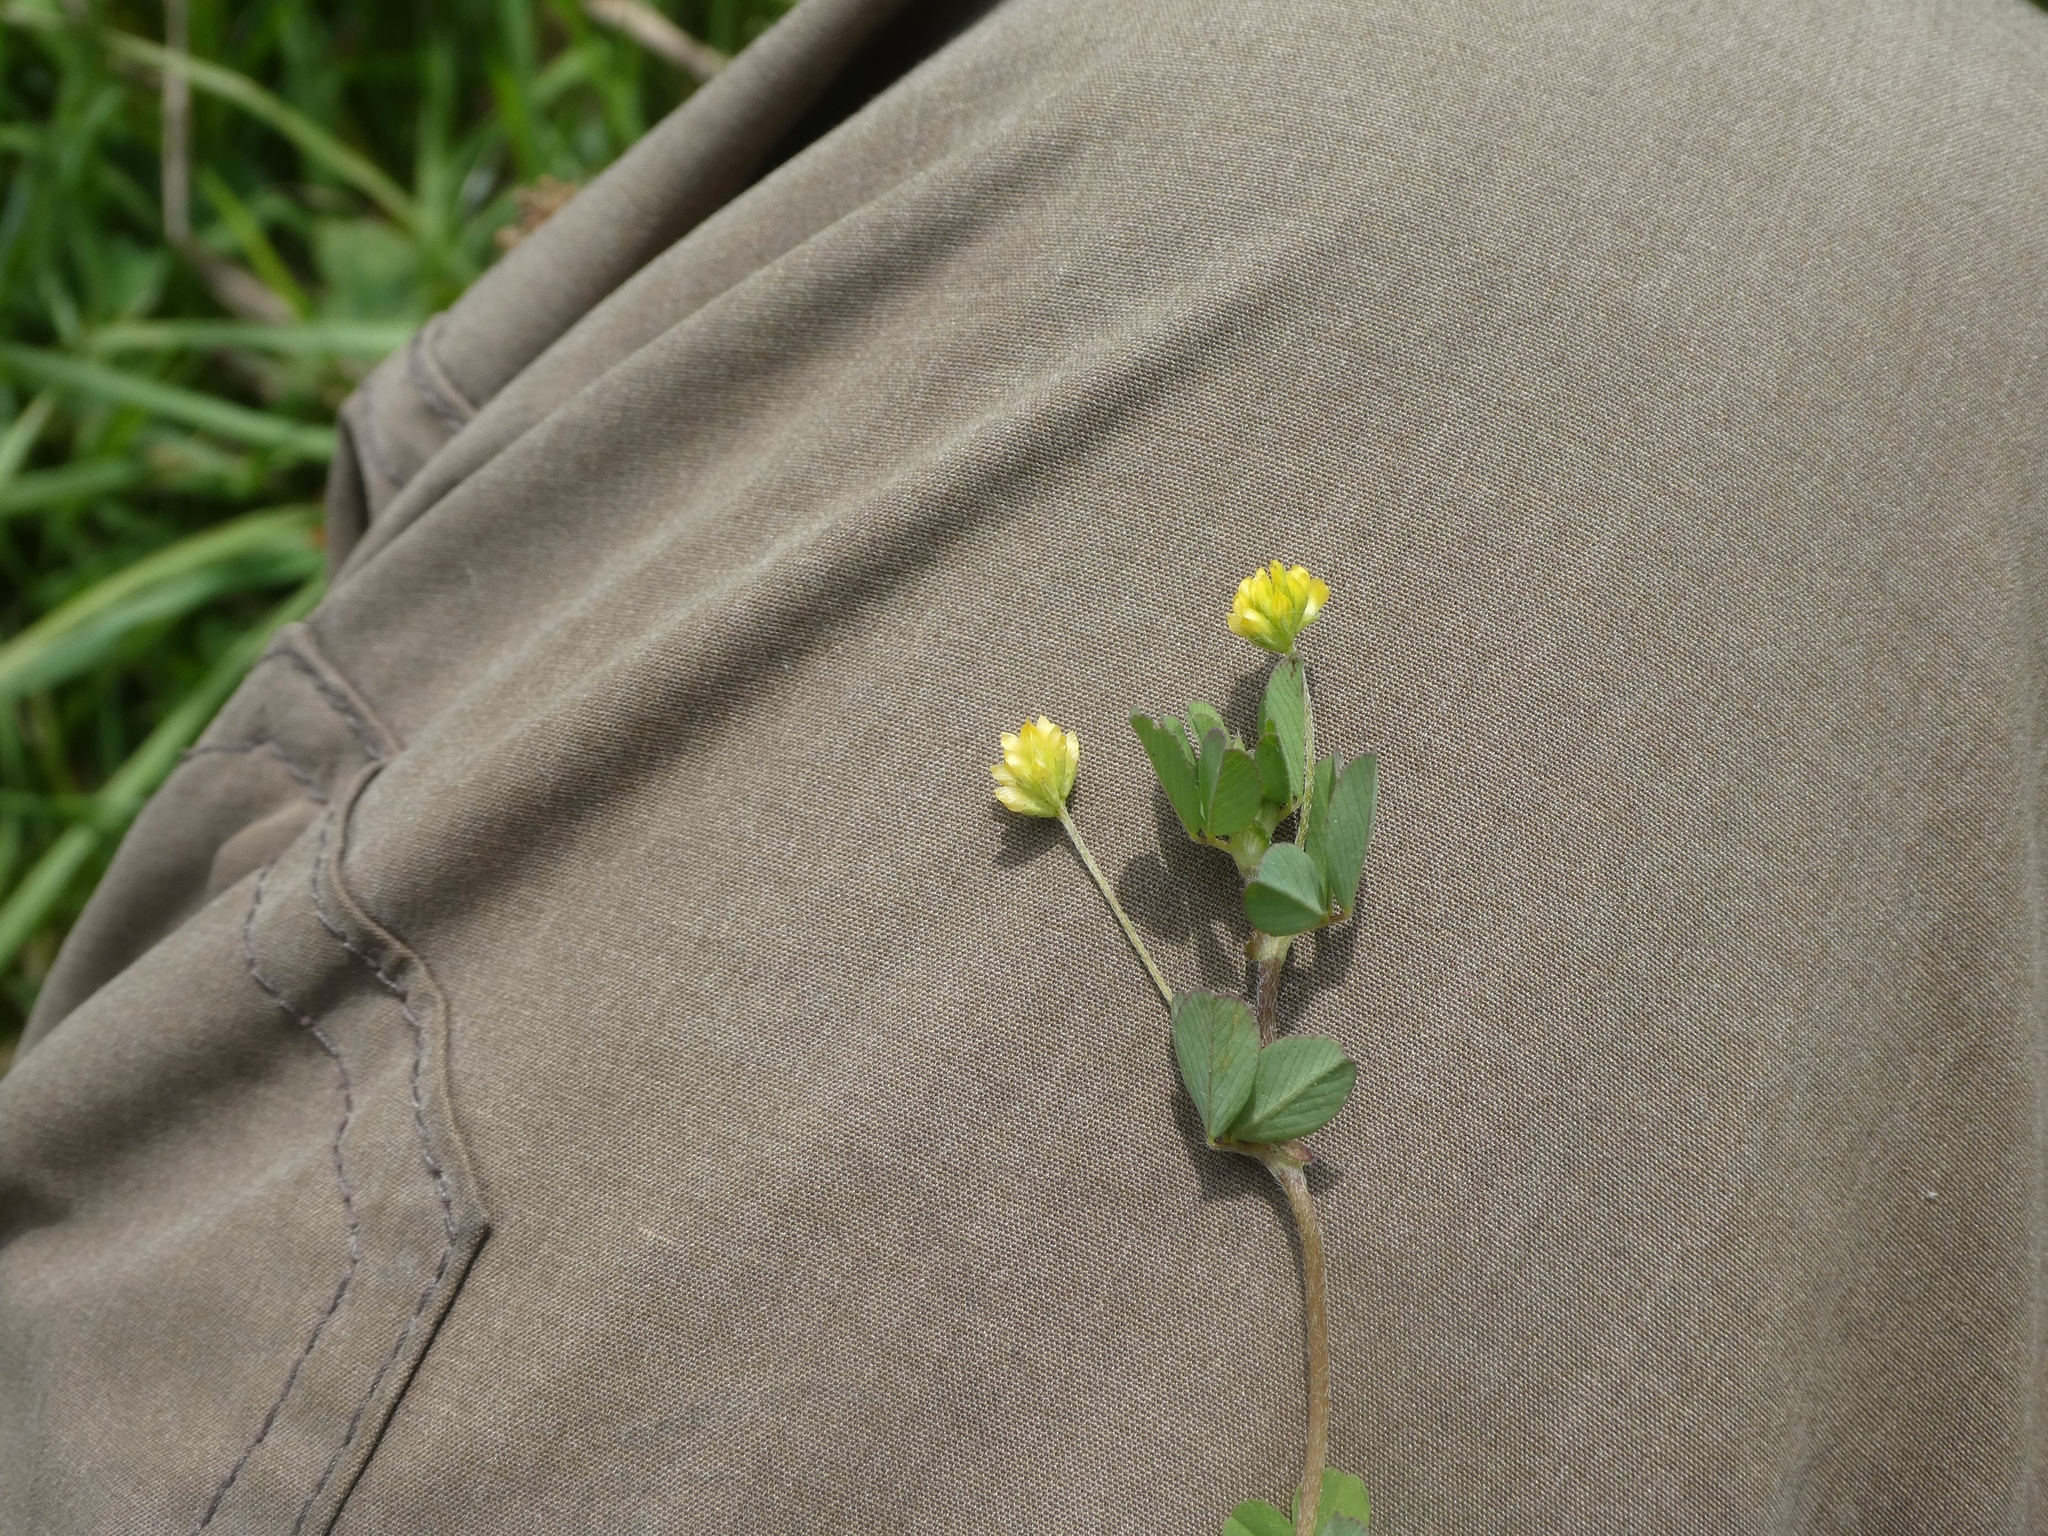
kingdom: Plantae
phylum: Tracheophyta
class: Magnoliopsida
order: Fabales
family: Fabaceae
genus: Trifolium
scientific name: Trifolium dubium
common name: Suckling clover
